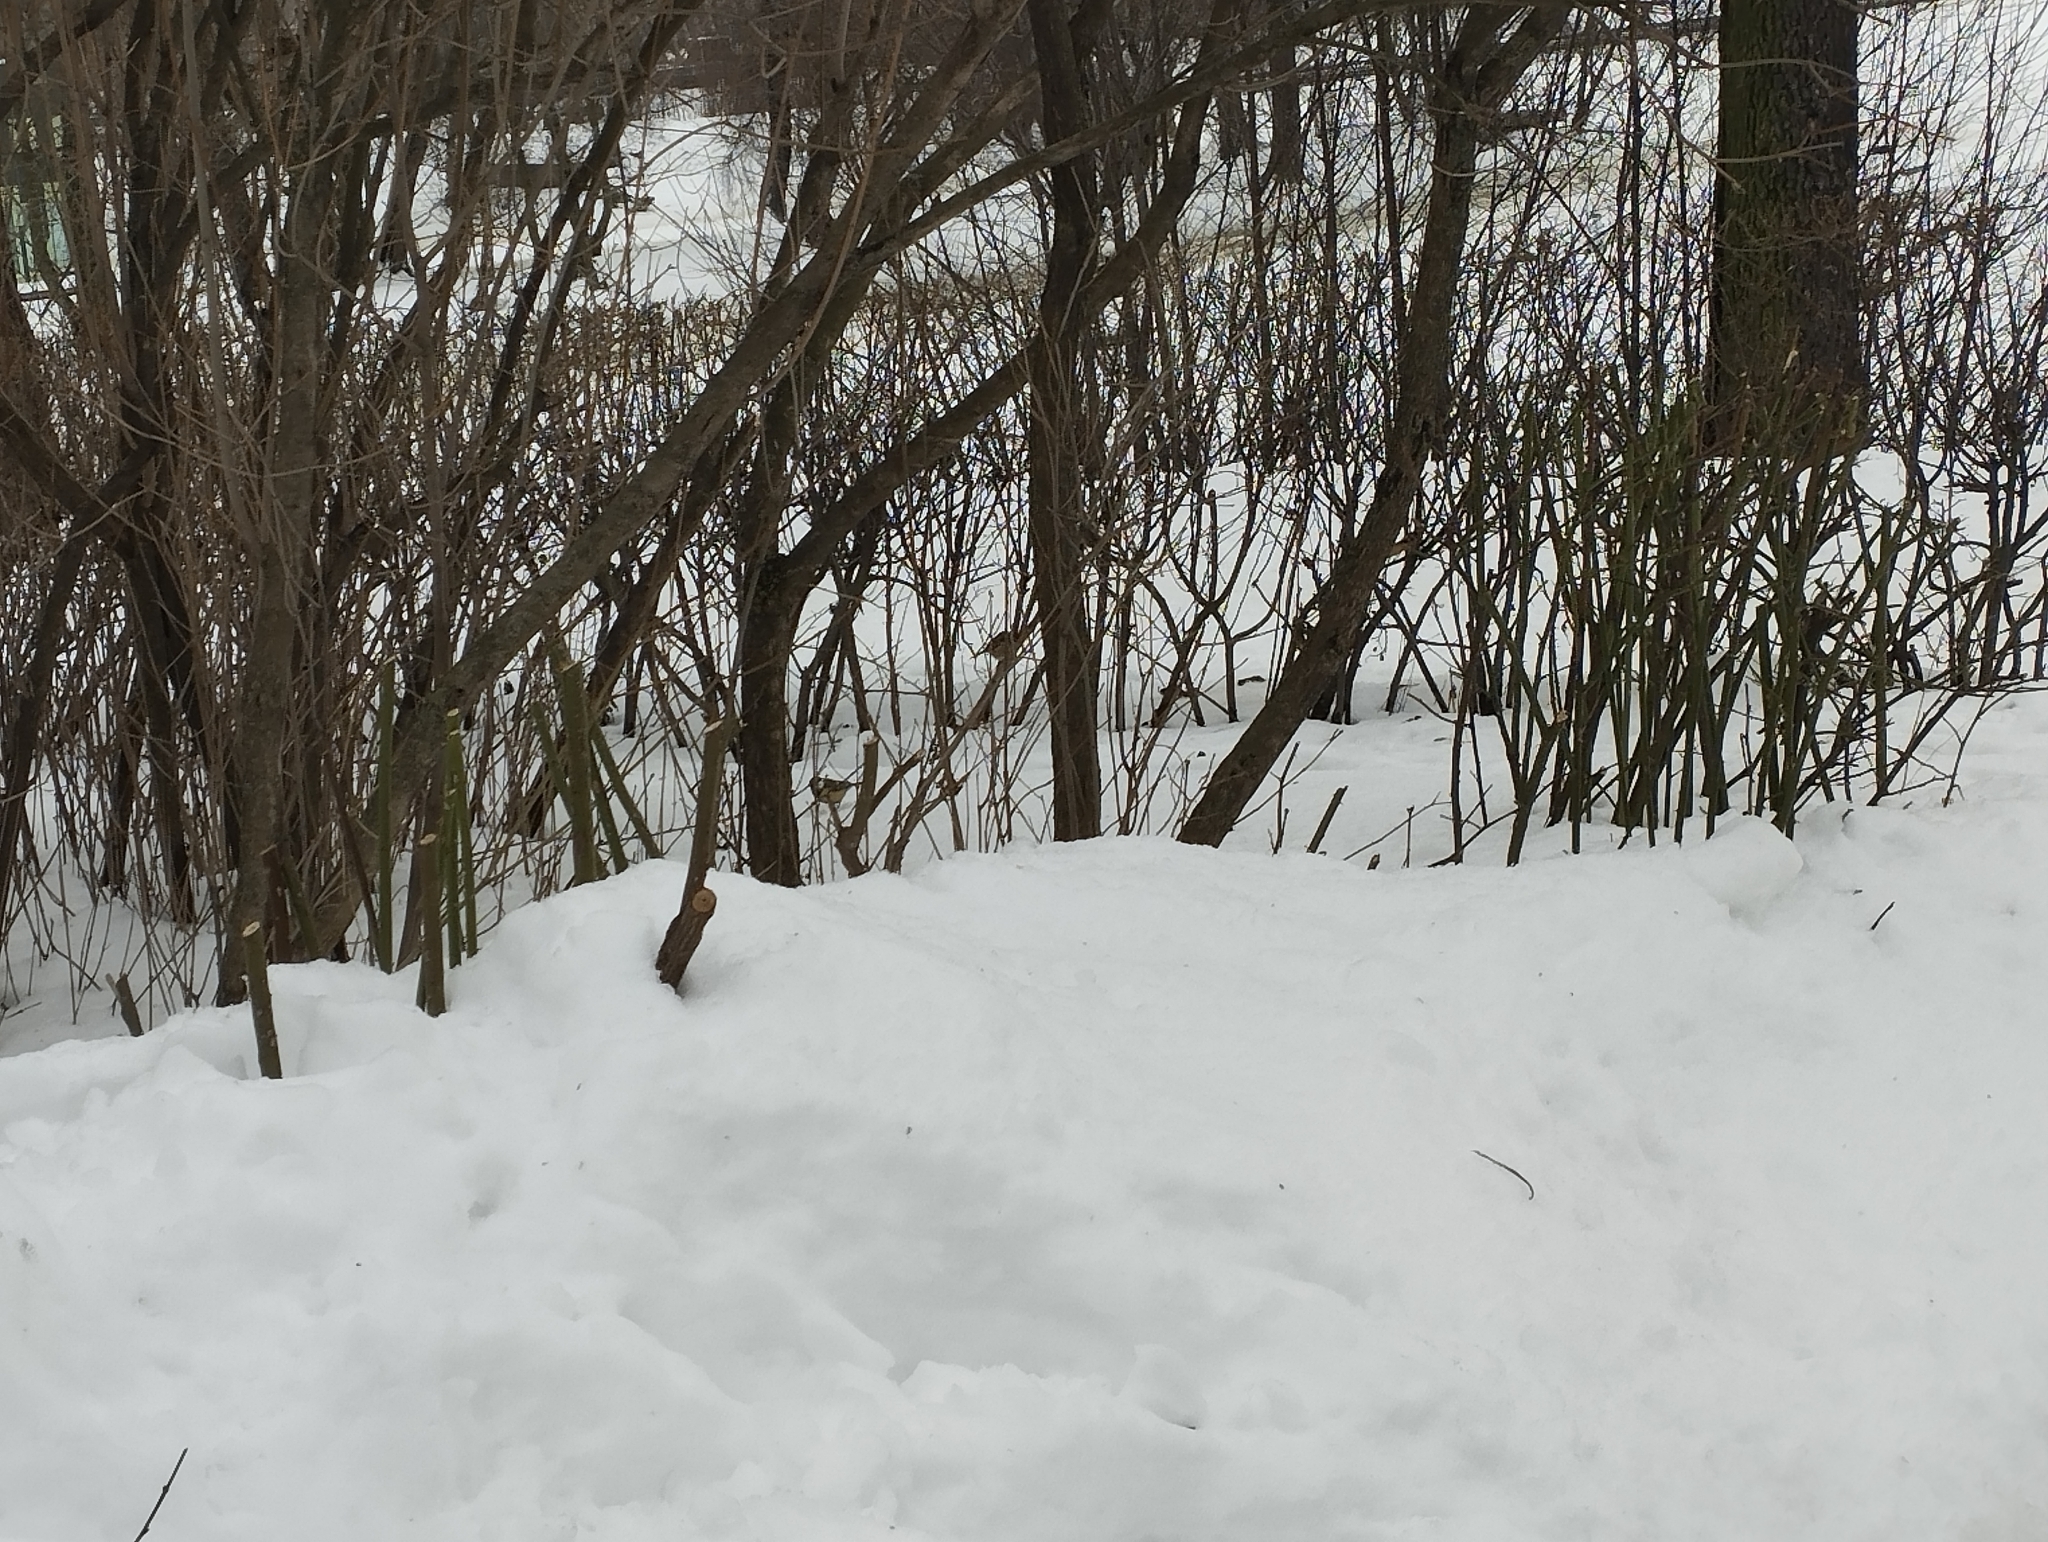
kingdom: Animalia
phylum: Chordata
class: Aves
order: Passeriformes
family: Paridae
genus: Parus
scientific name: Parus major
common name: Great tit
